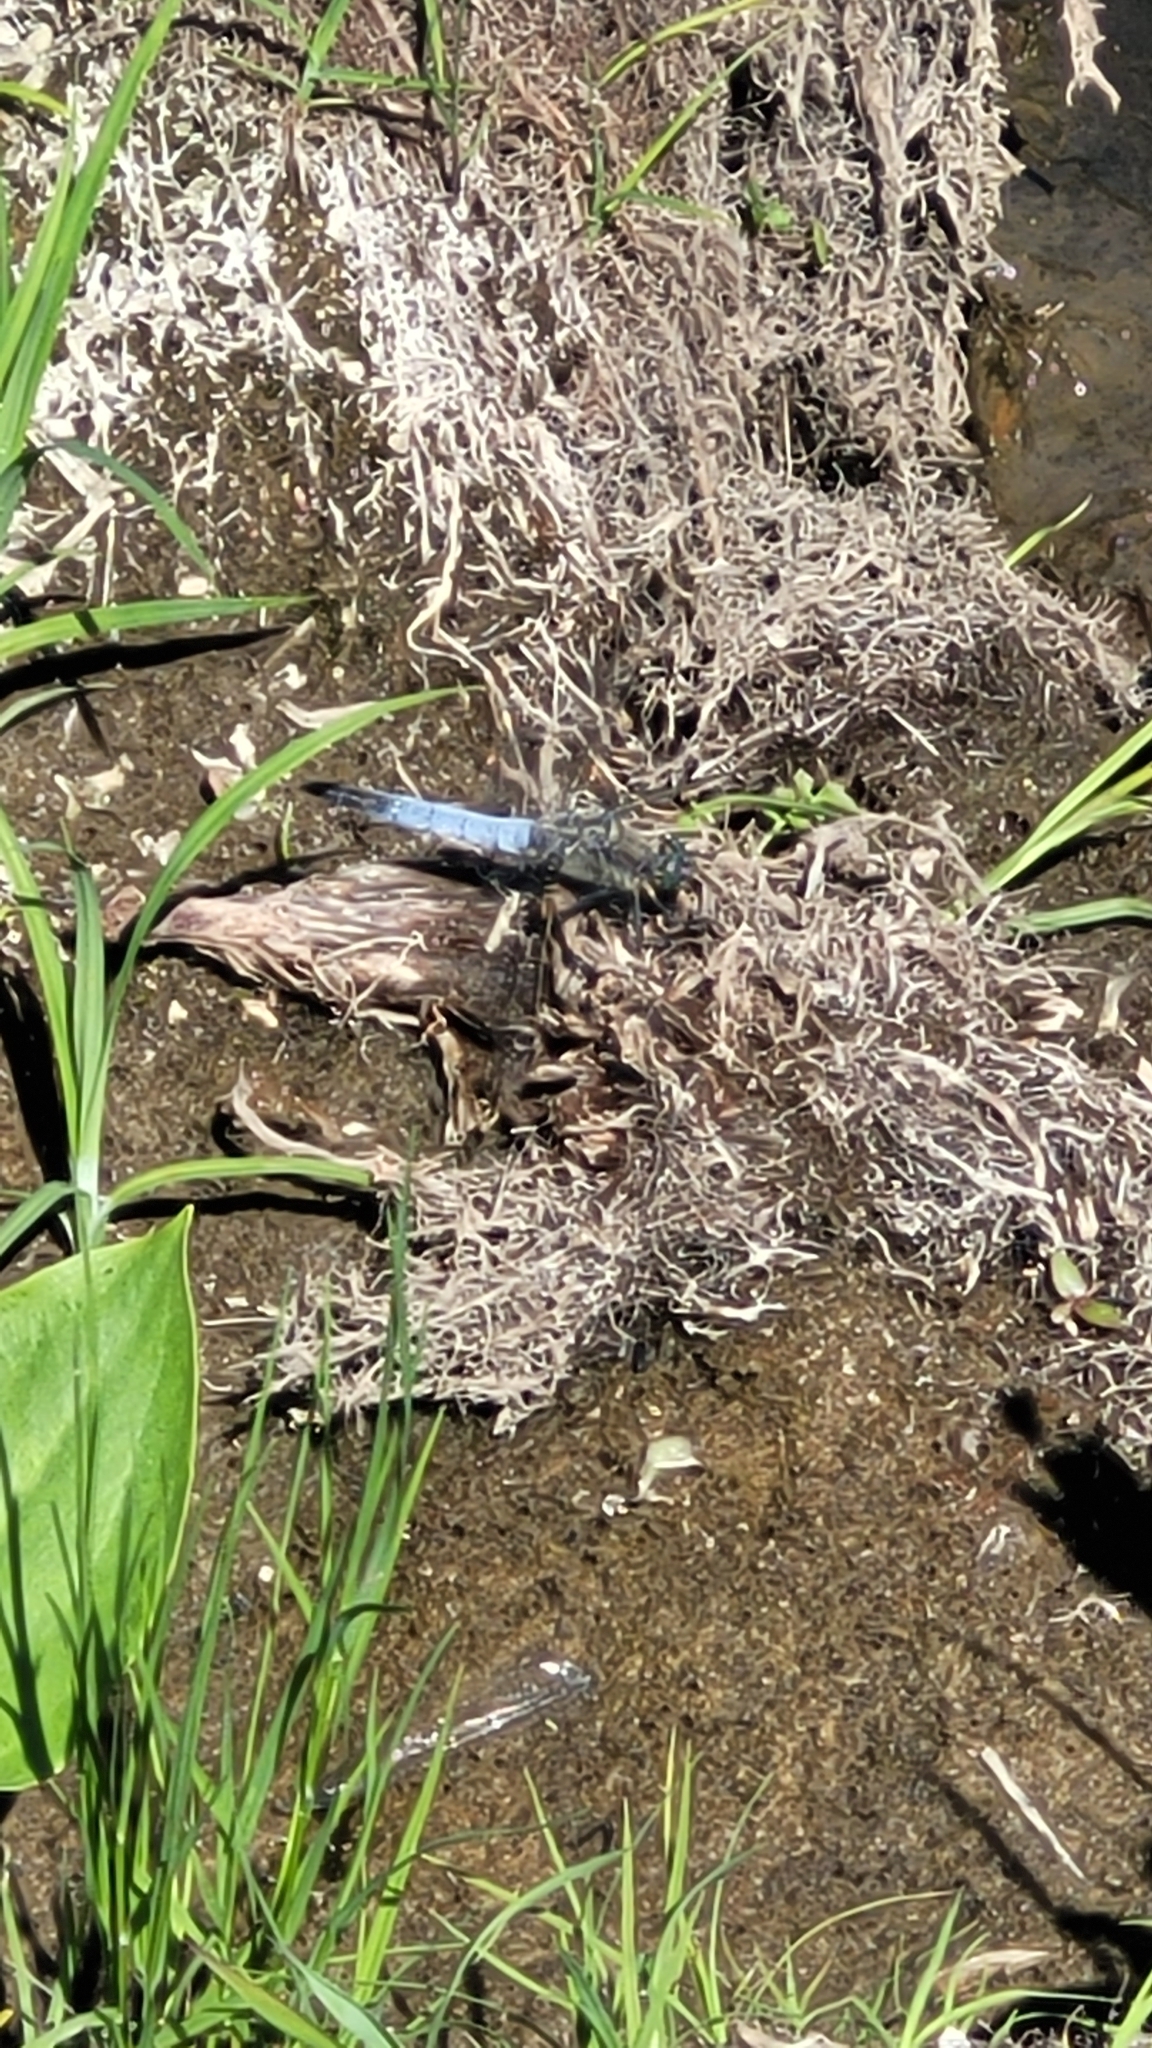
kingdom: Animalia
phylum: Arthropoda
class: Insecta
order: Odonata
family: Libellulidae
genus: Orthetrum
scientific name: Orthetrum cancellatum
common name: Black-tailed skimmer
